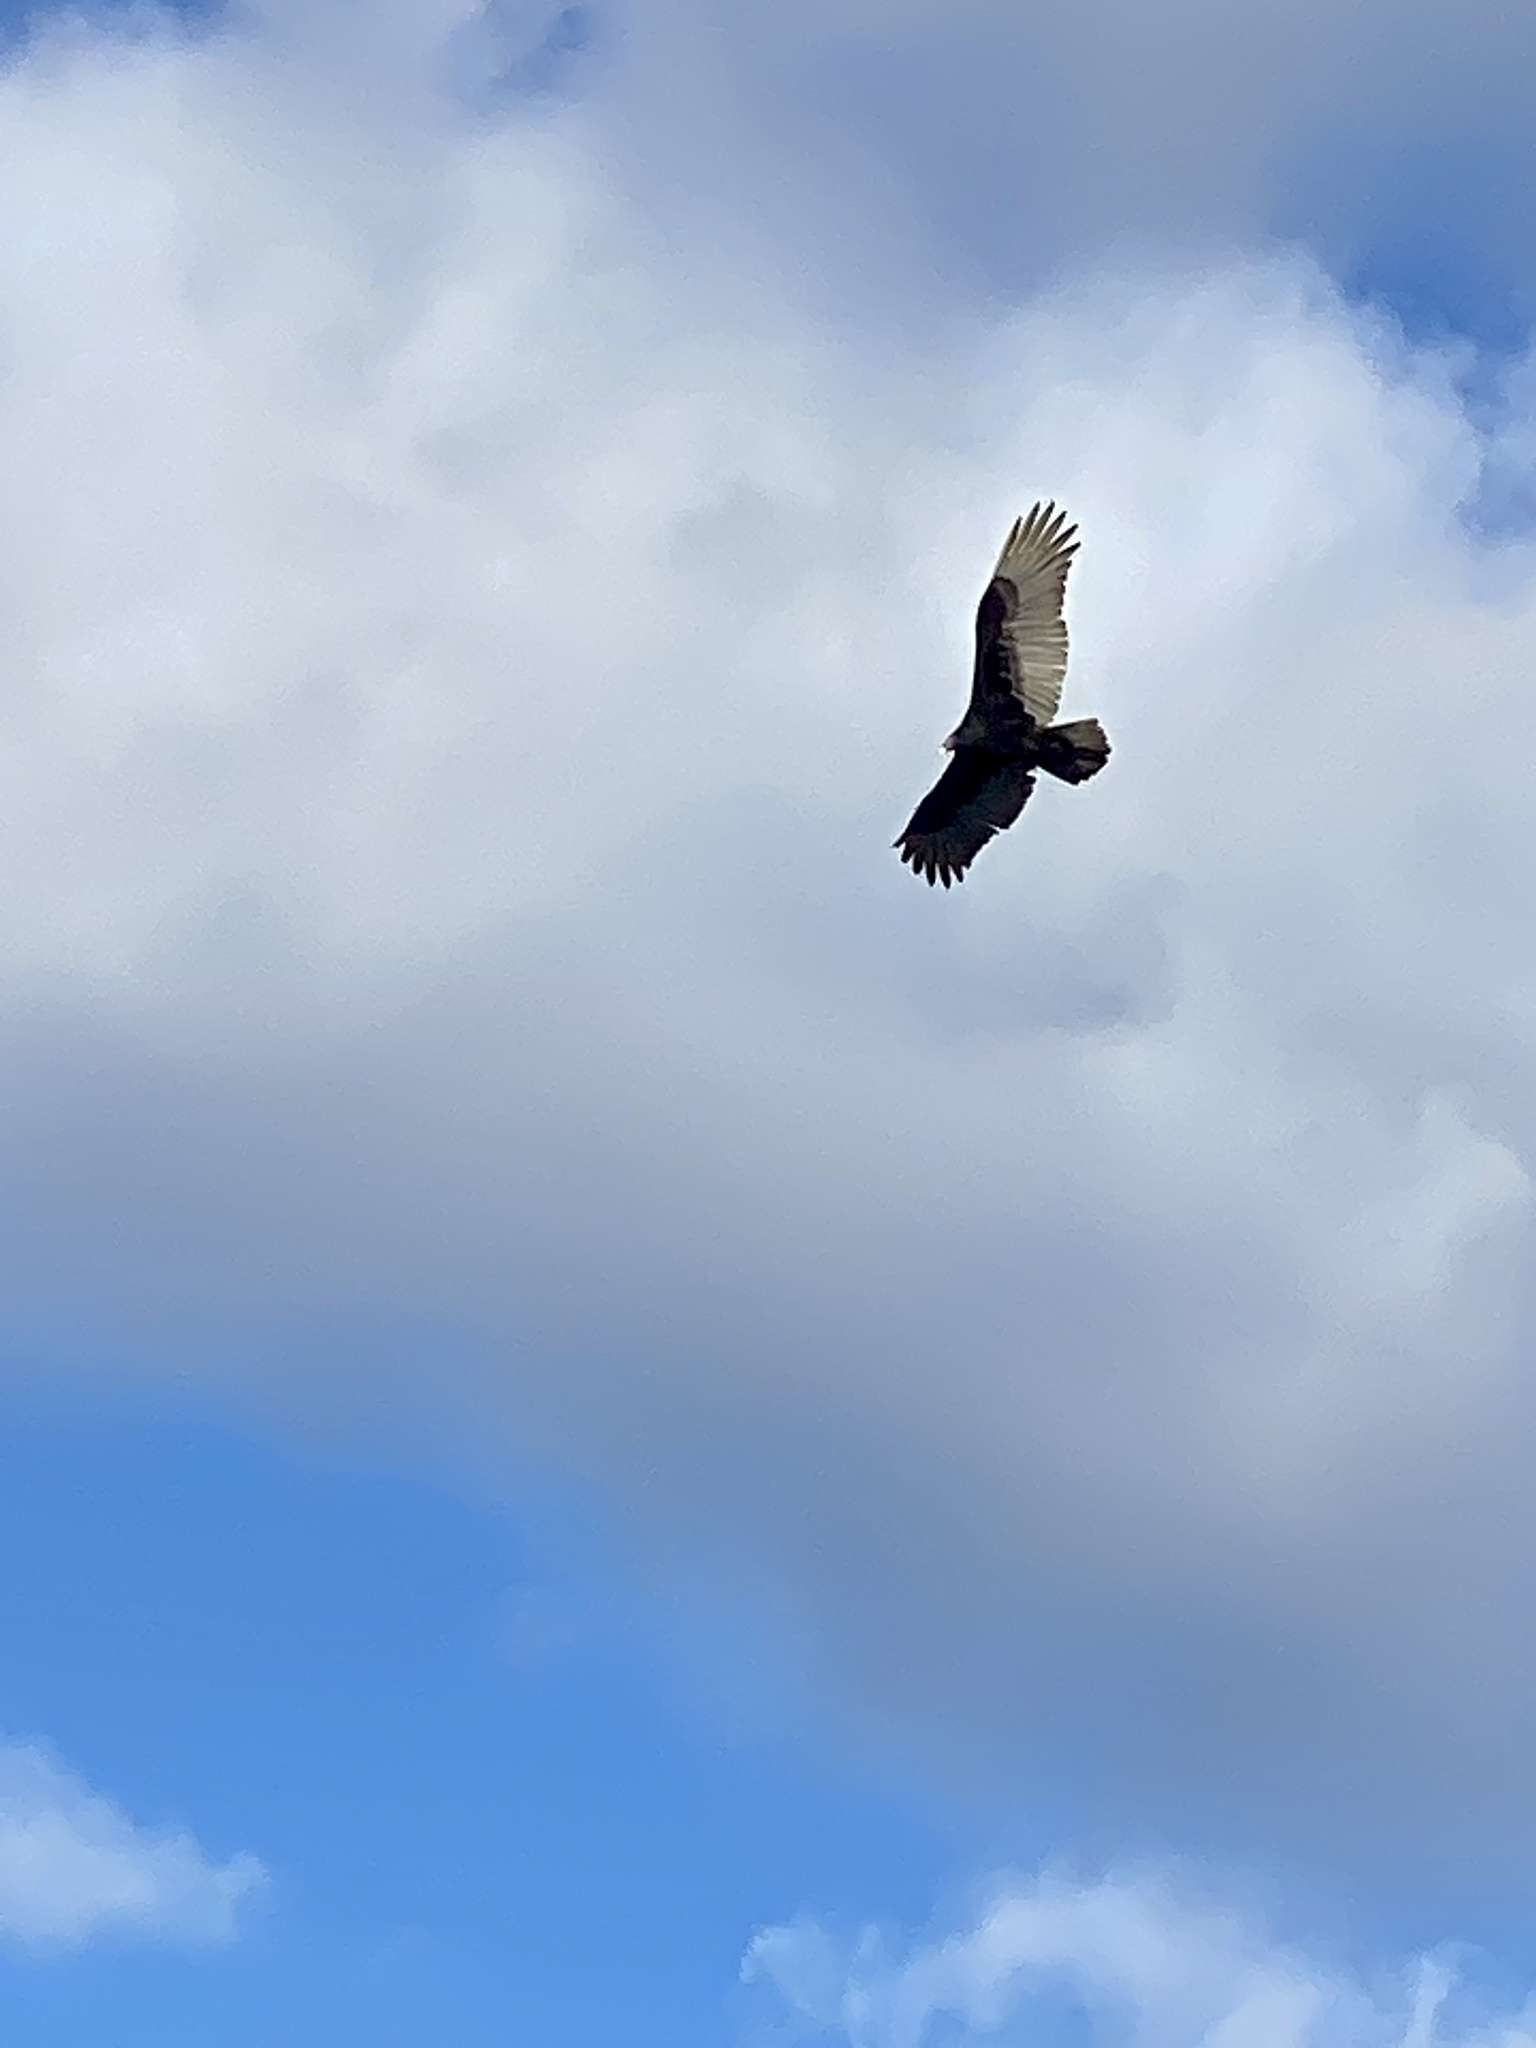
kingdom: Animalia
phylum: Chordata
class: Aves
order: Accipitriformes
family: Cathartidae
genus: Cathartes
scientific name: Cathartes aura
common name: Turkey vulture
